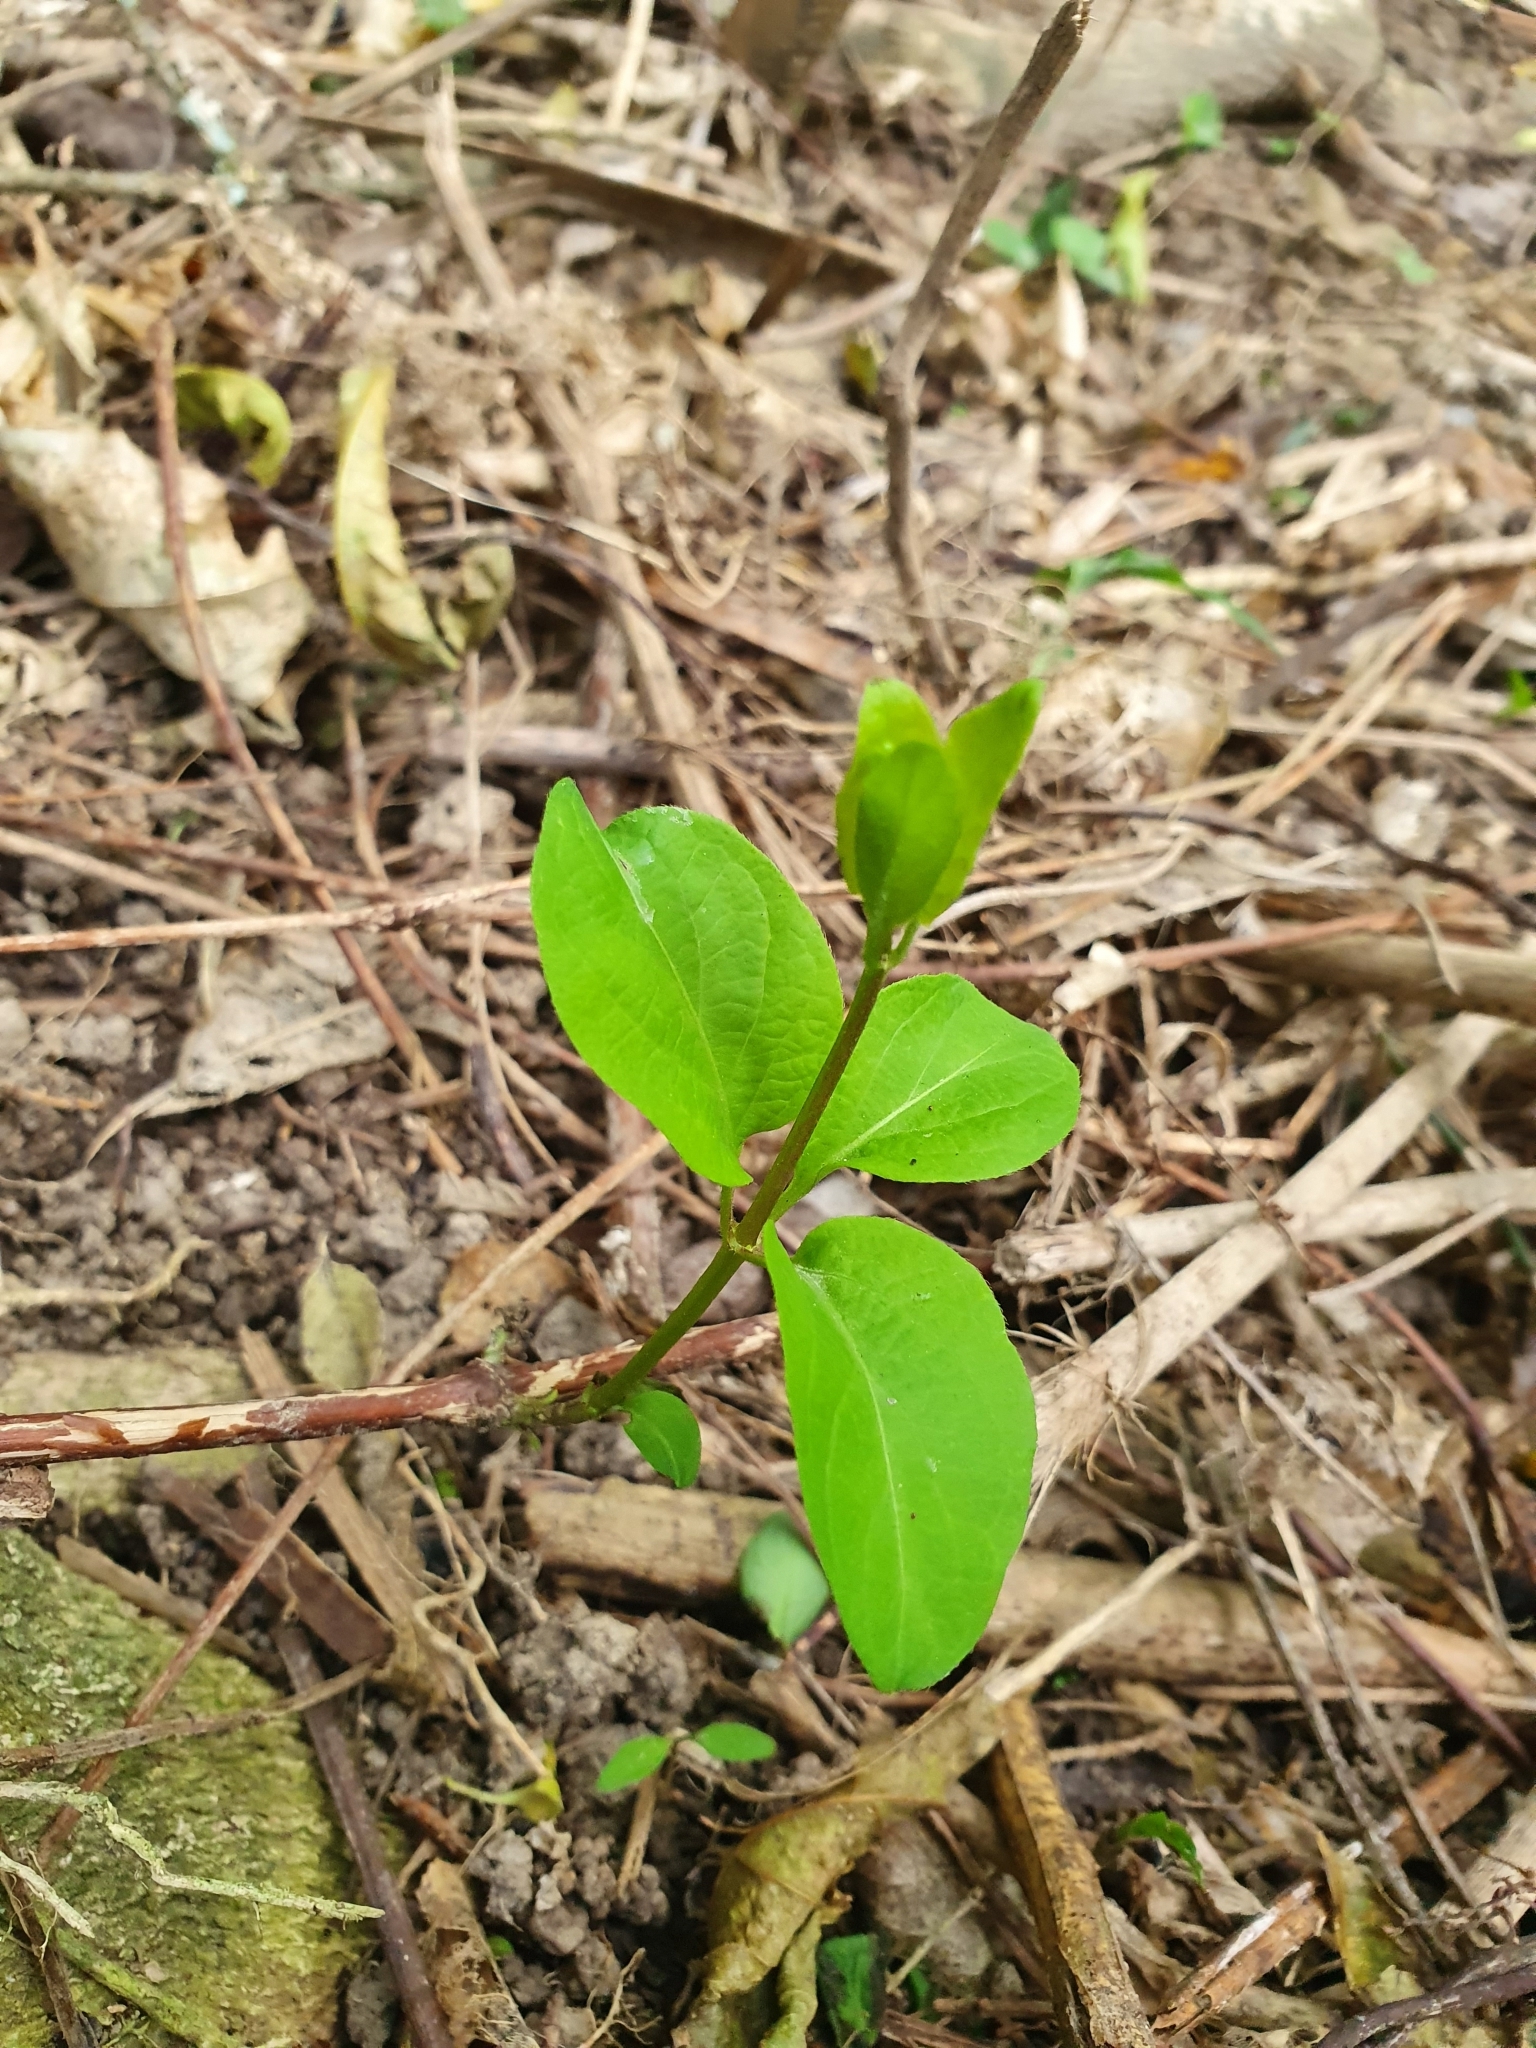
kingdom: Plantae
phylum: Tracheophyta
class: Magnoliopsida
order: Dipsacales
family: Caprifoliaceae
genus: Lonicera
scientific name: Lonicera japonica
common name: Japanese honeysuckle
